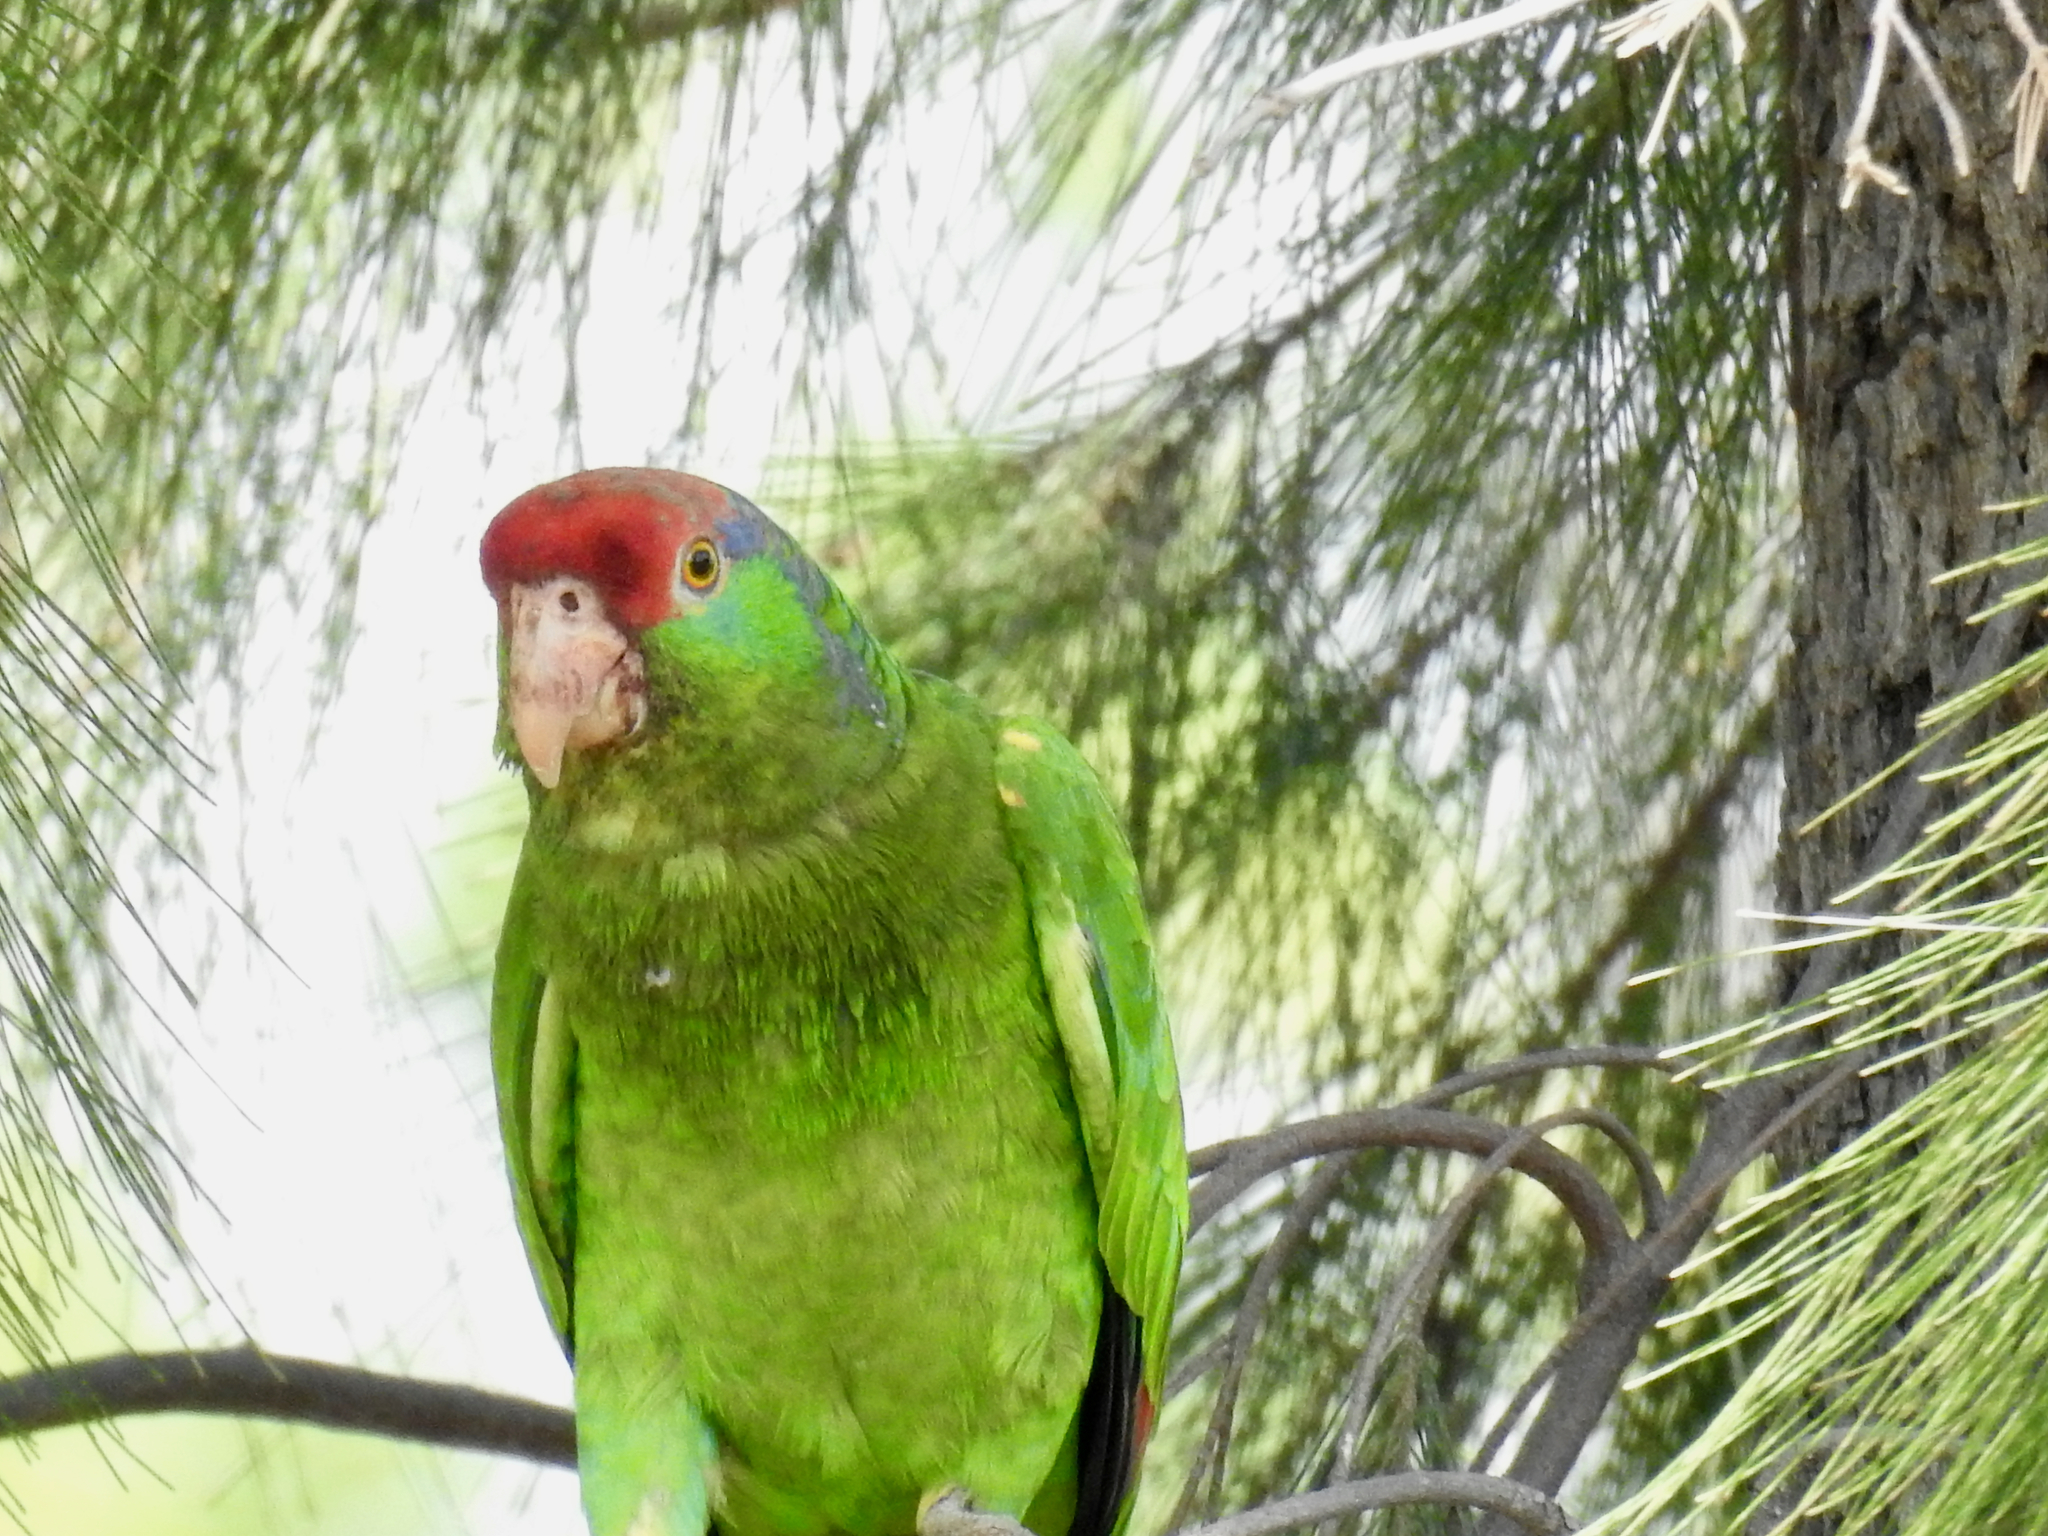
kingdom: Animalia
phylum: Chordata
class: Aves
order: Psittaciformes
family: Psittacidae
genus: Amazona
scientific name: Amazona viridigenalis
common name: Red-crowned amazon
